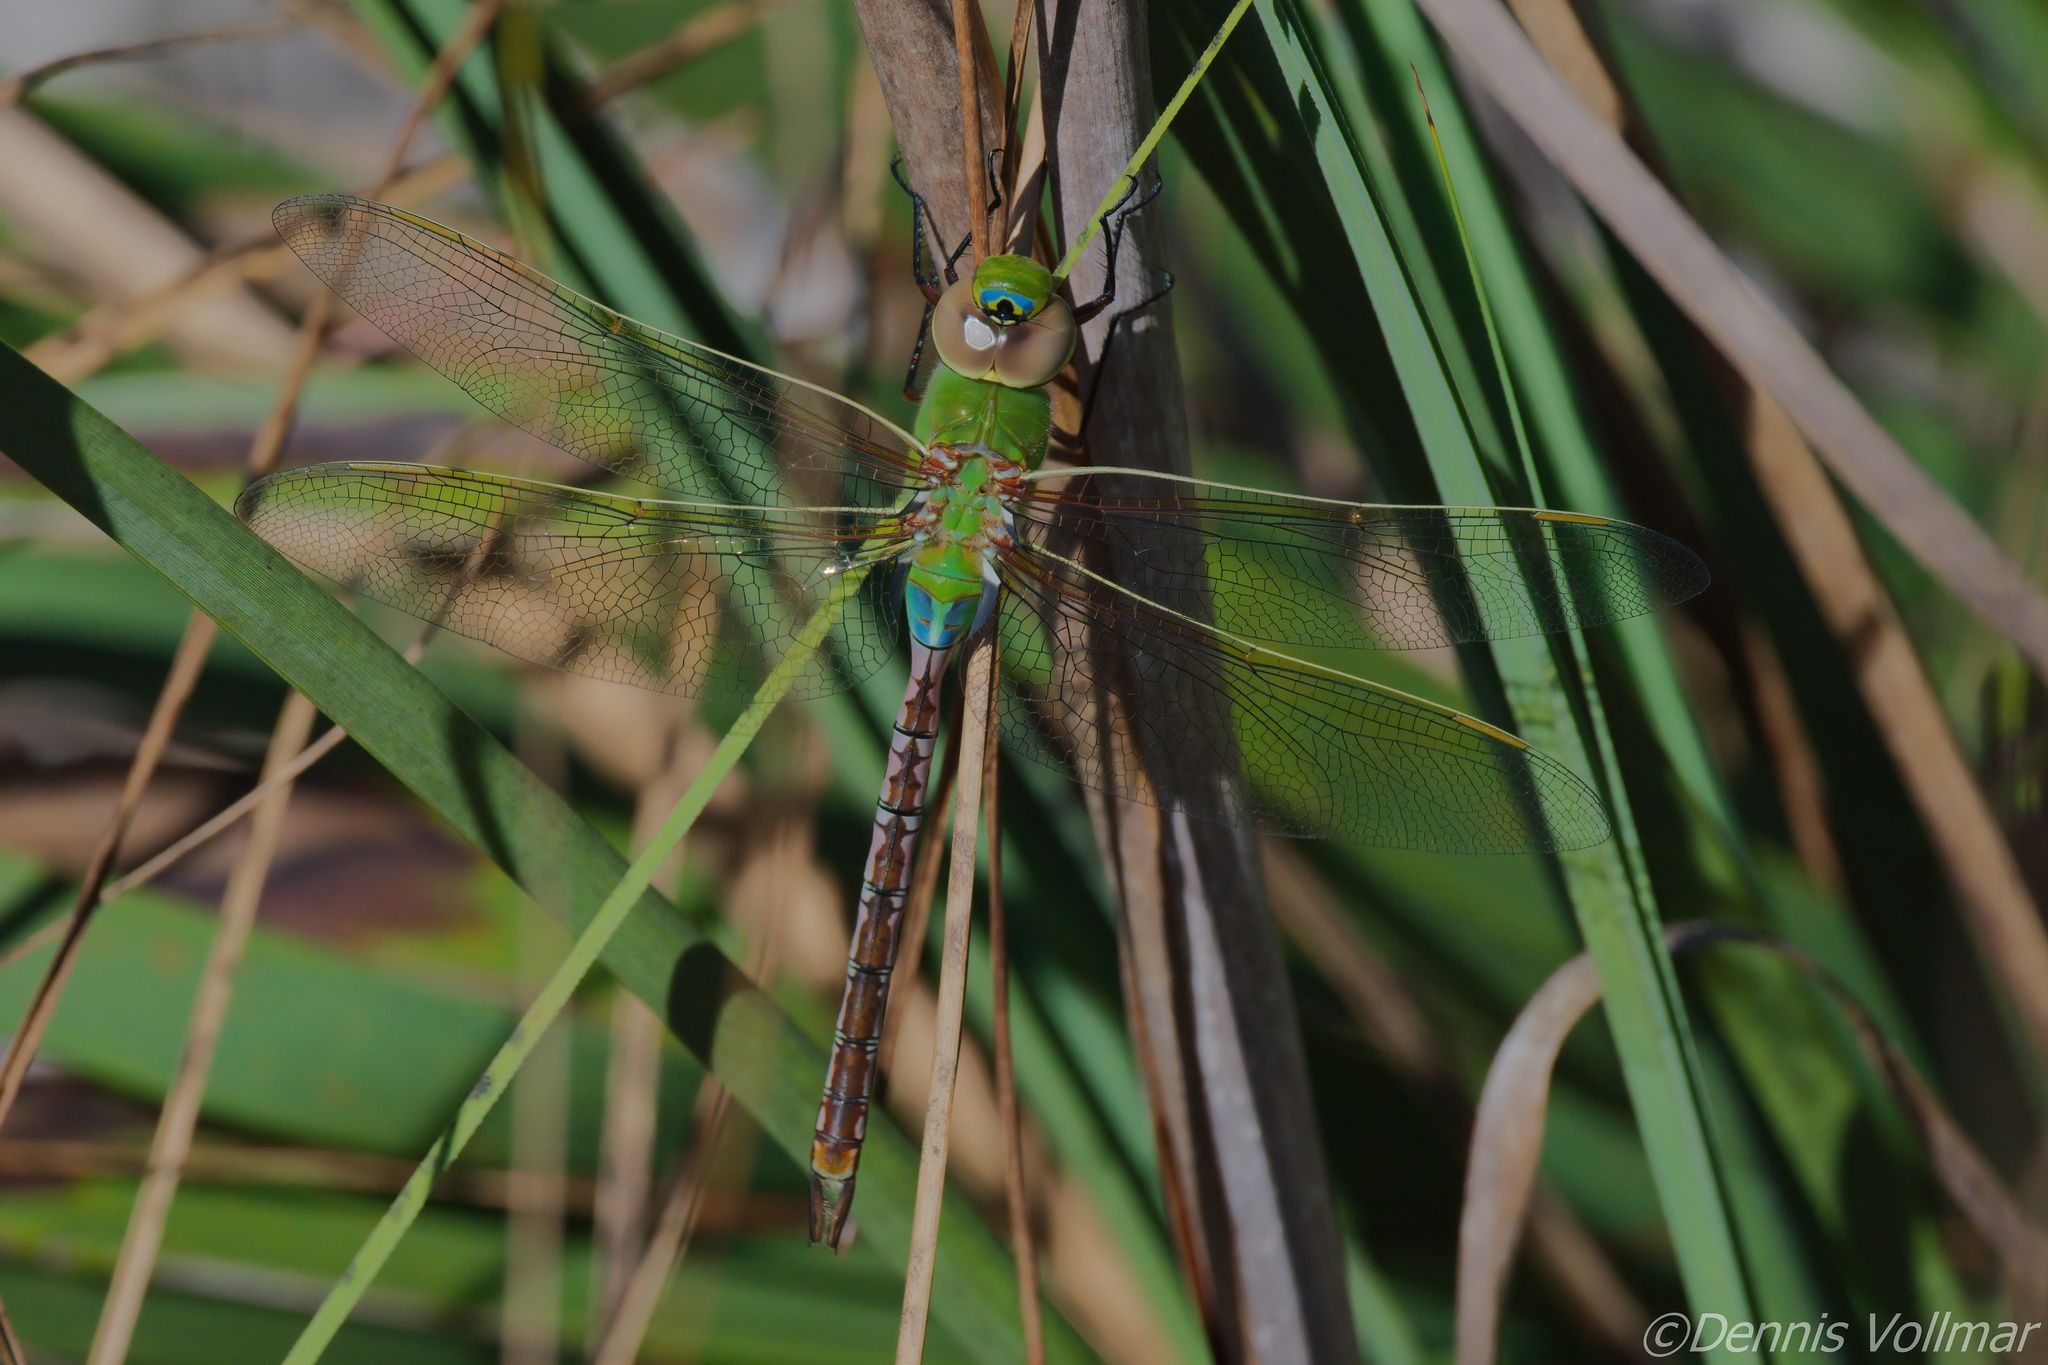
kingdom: Animalia
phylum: Arthropoda
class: Insecta
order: Odonata
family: Aeshnidae
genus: Anax
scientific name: Anax junius
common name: Common green darner
